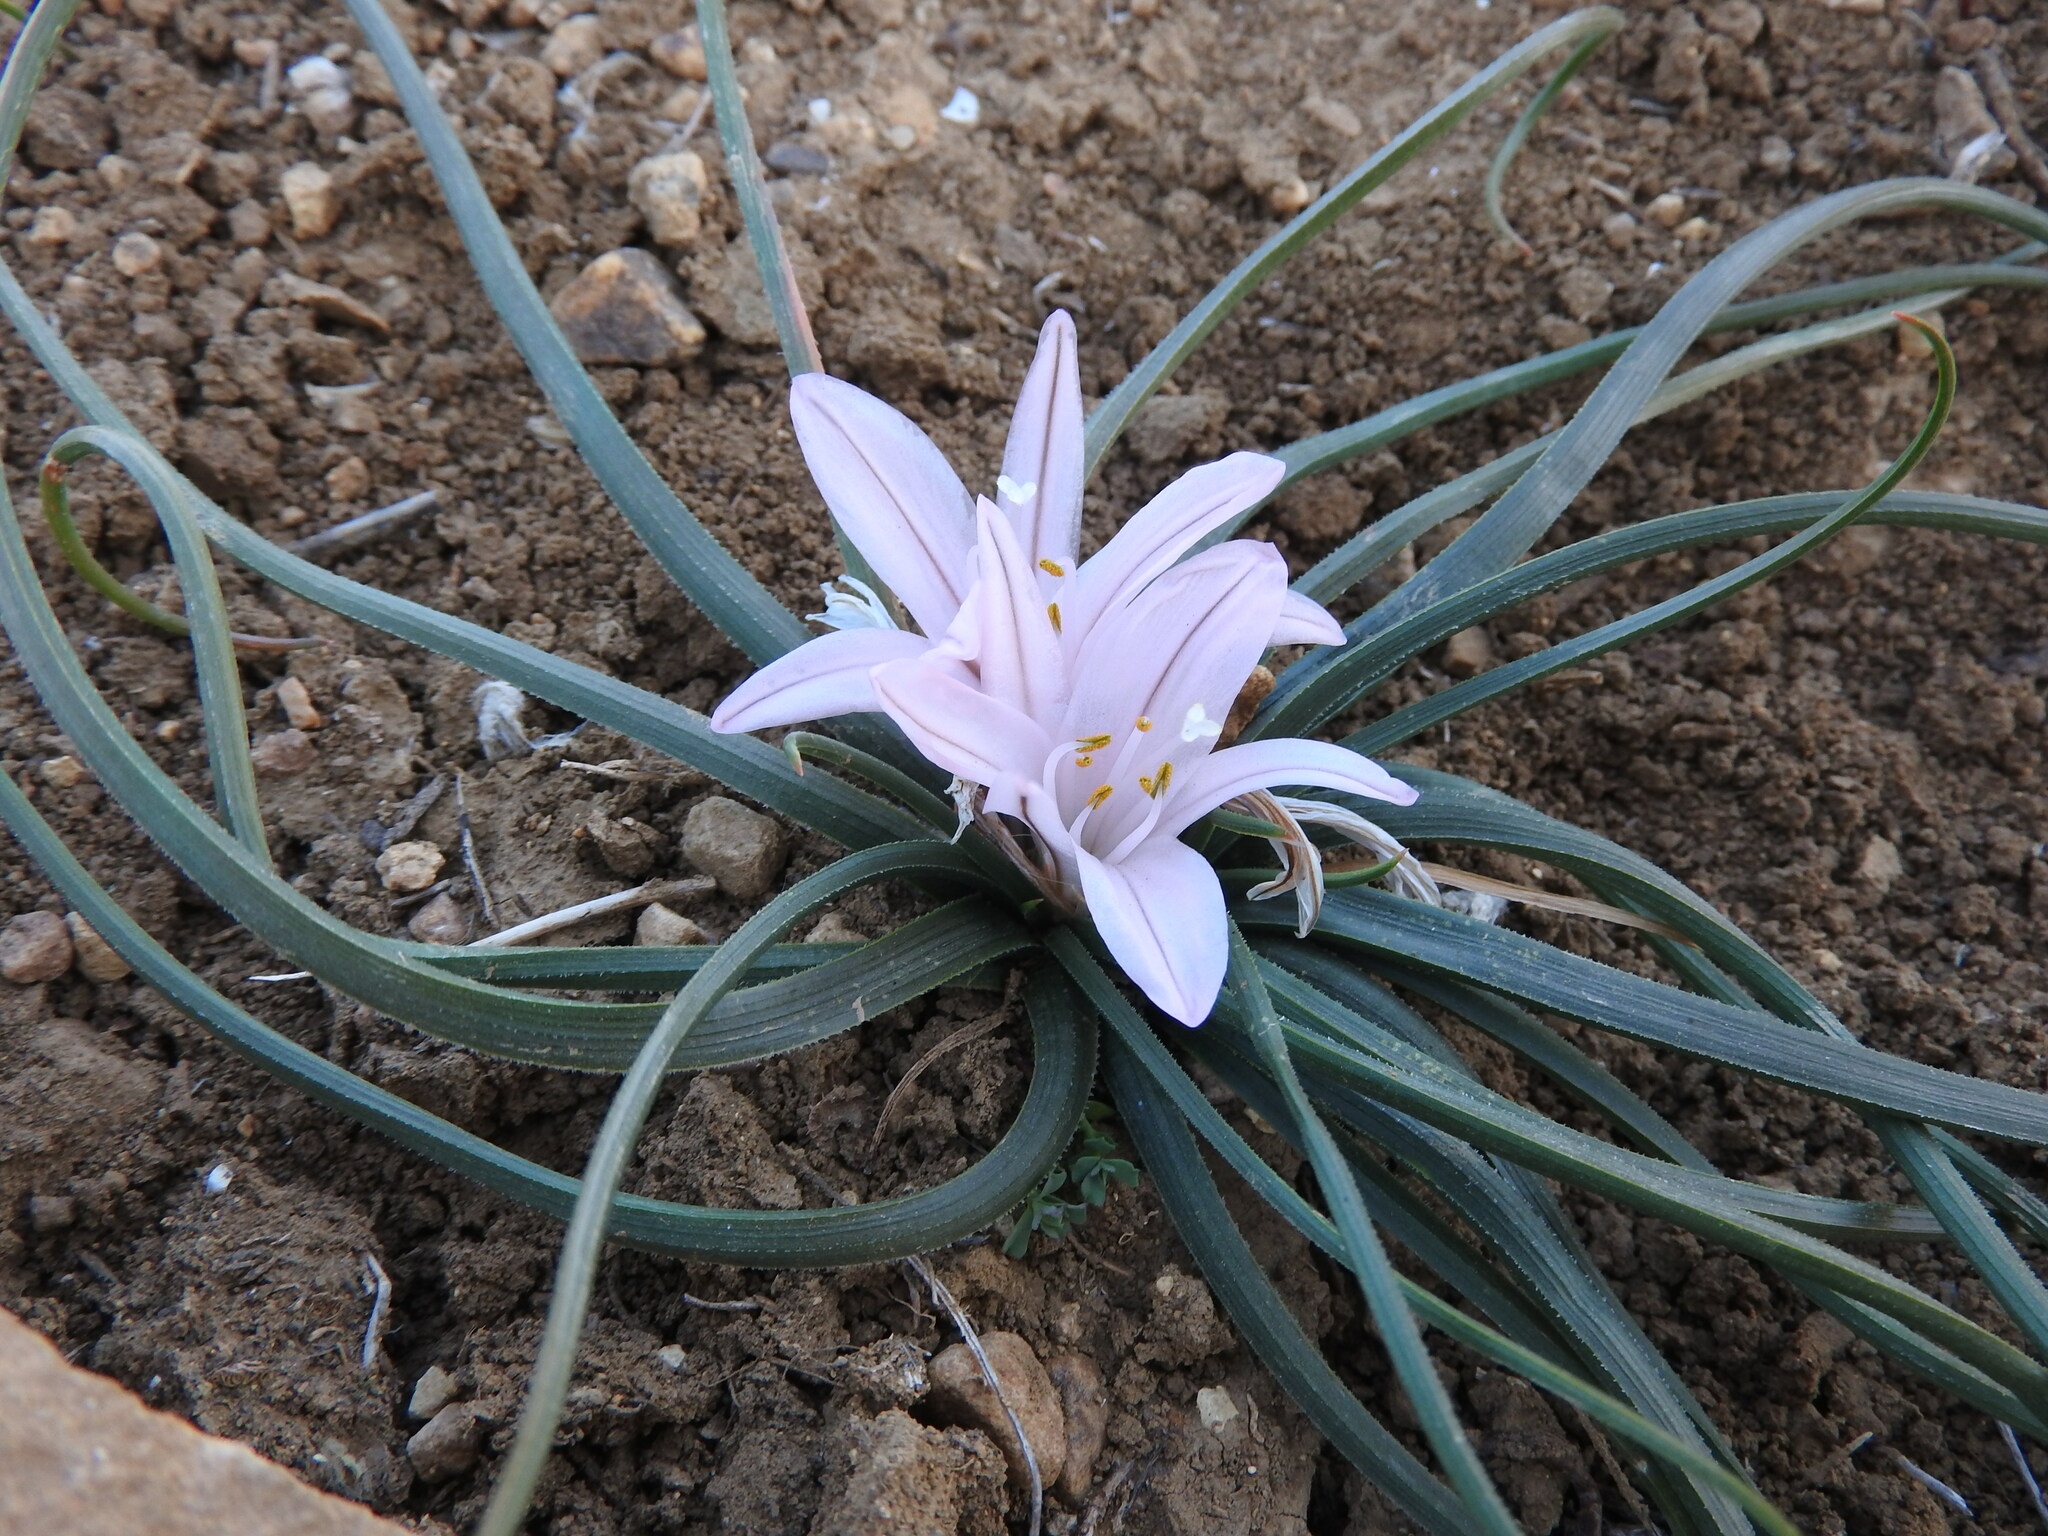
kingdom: Plantae
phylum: Tracheophyta
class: Liliopsida
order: Asparagales
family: Asphodelaceae
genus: Asphodelus
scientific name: Asphodelus acaulis
